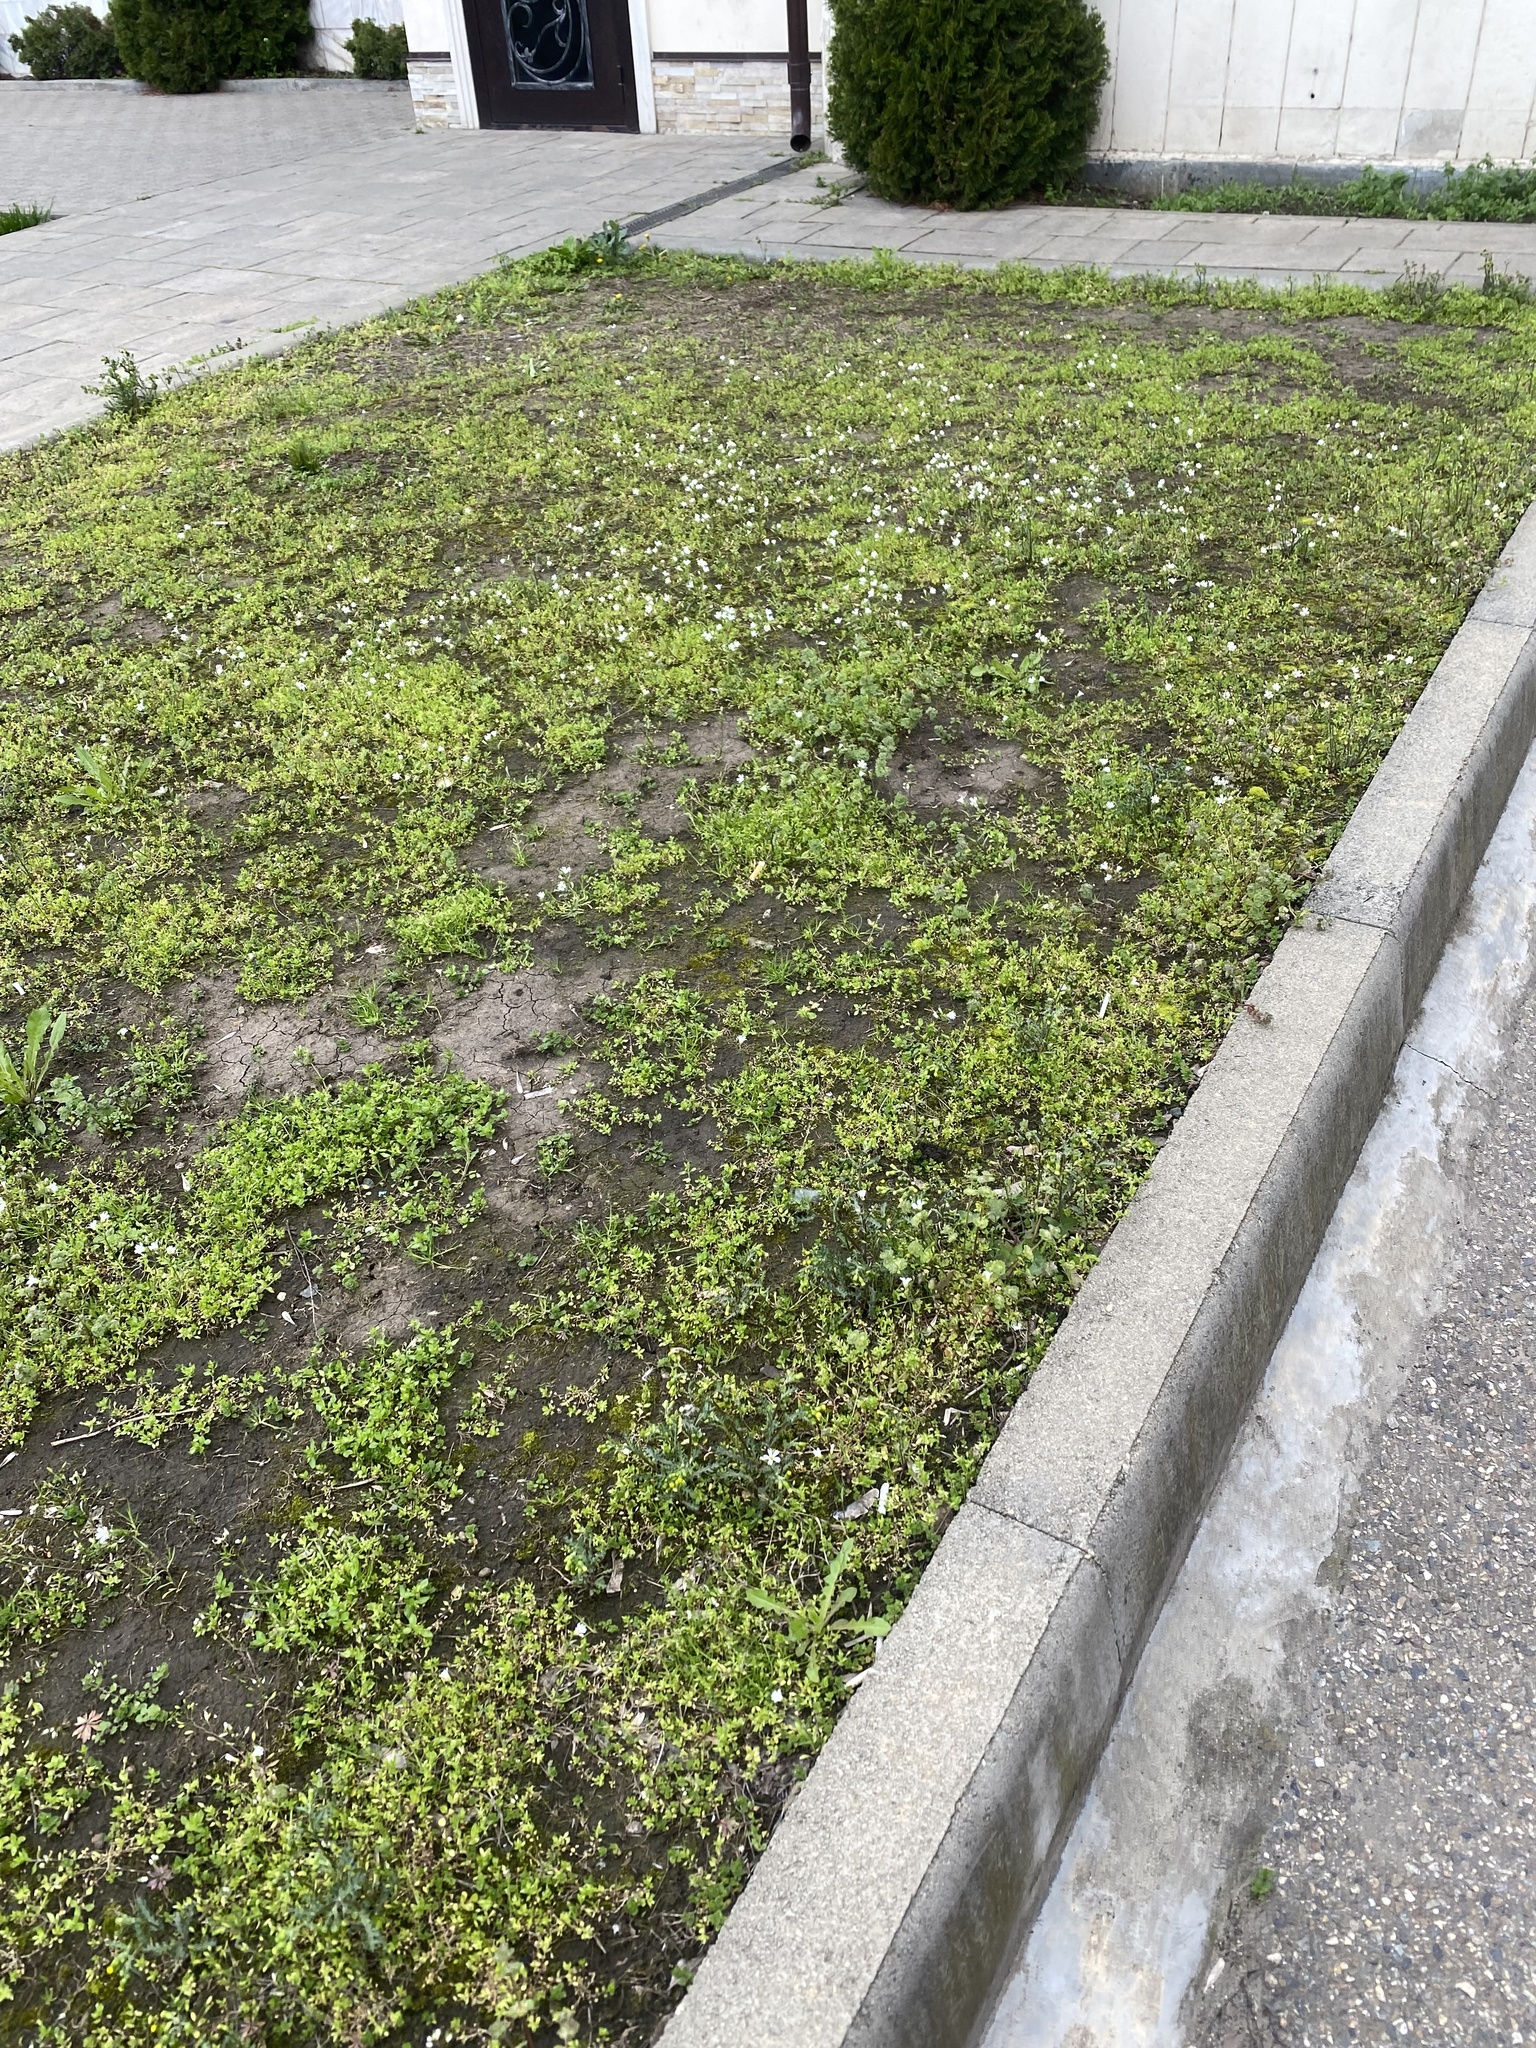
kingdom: Plantae
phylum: Tracheophyta
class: Magnoliopsida
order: Caryophyllales
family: Caryophyllaceae
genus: Dichodon
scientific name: Dichodon viscidum
